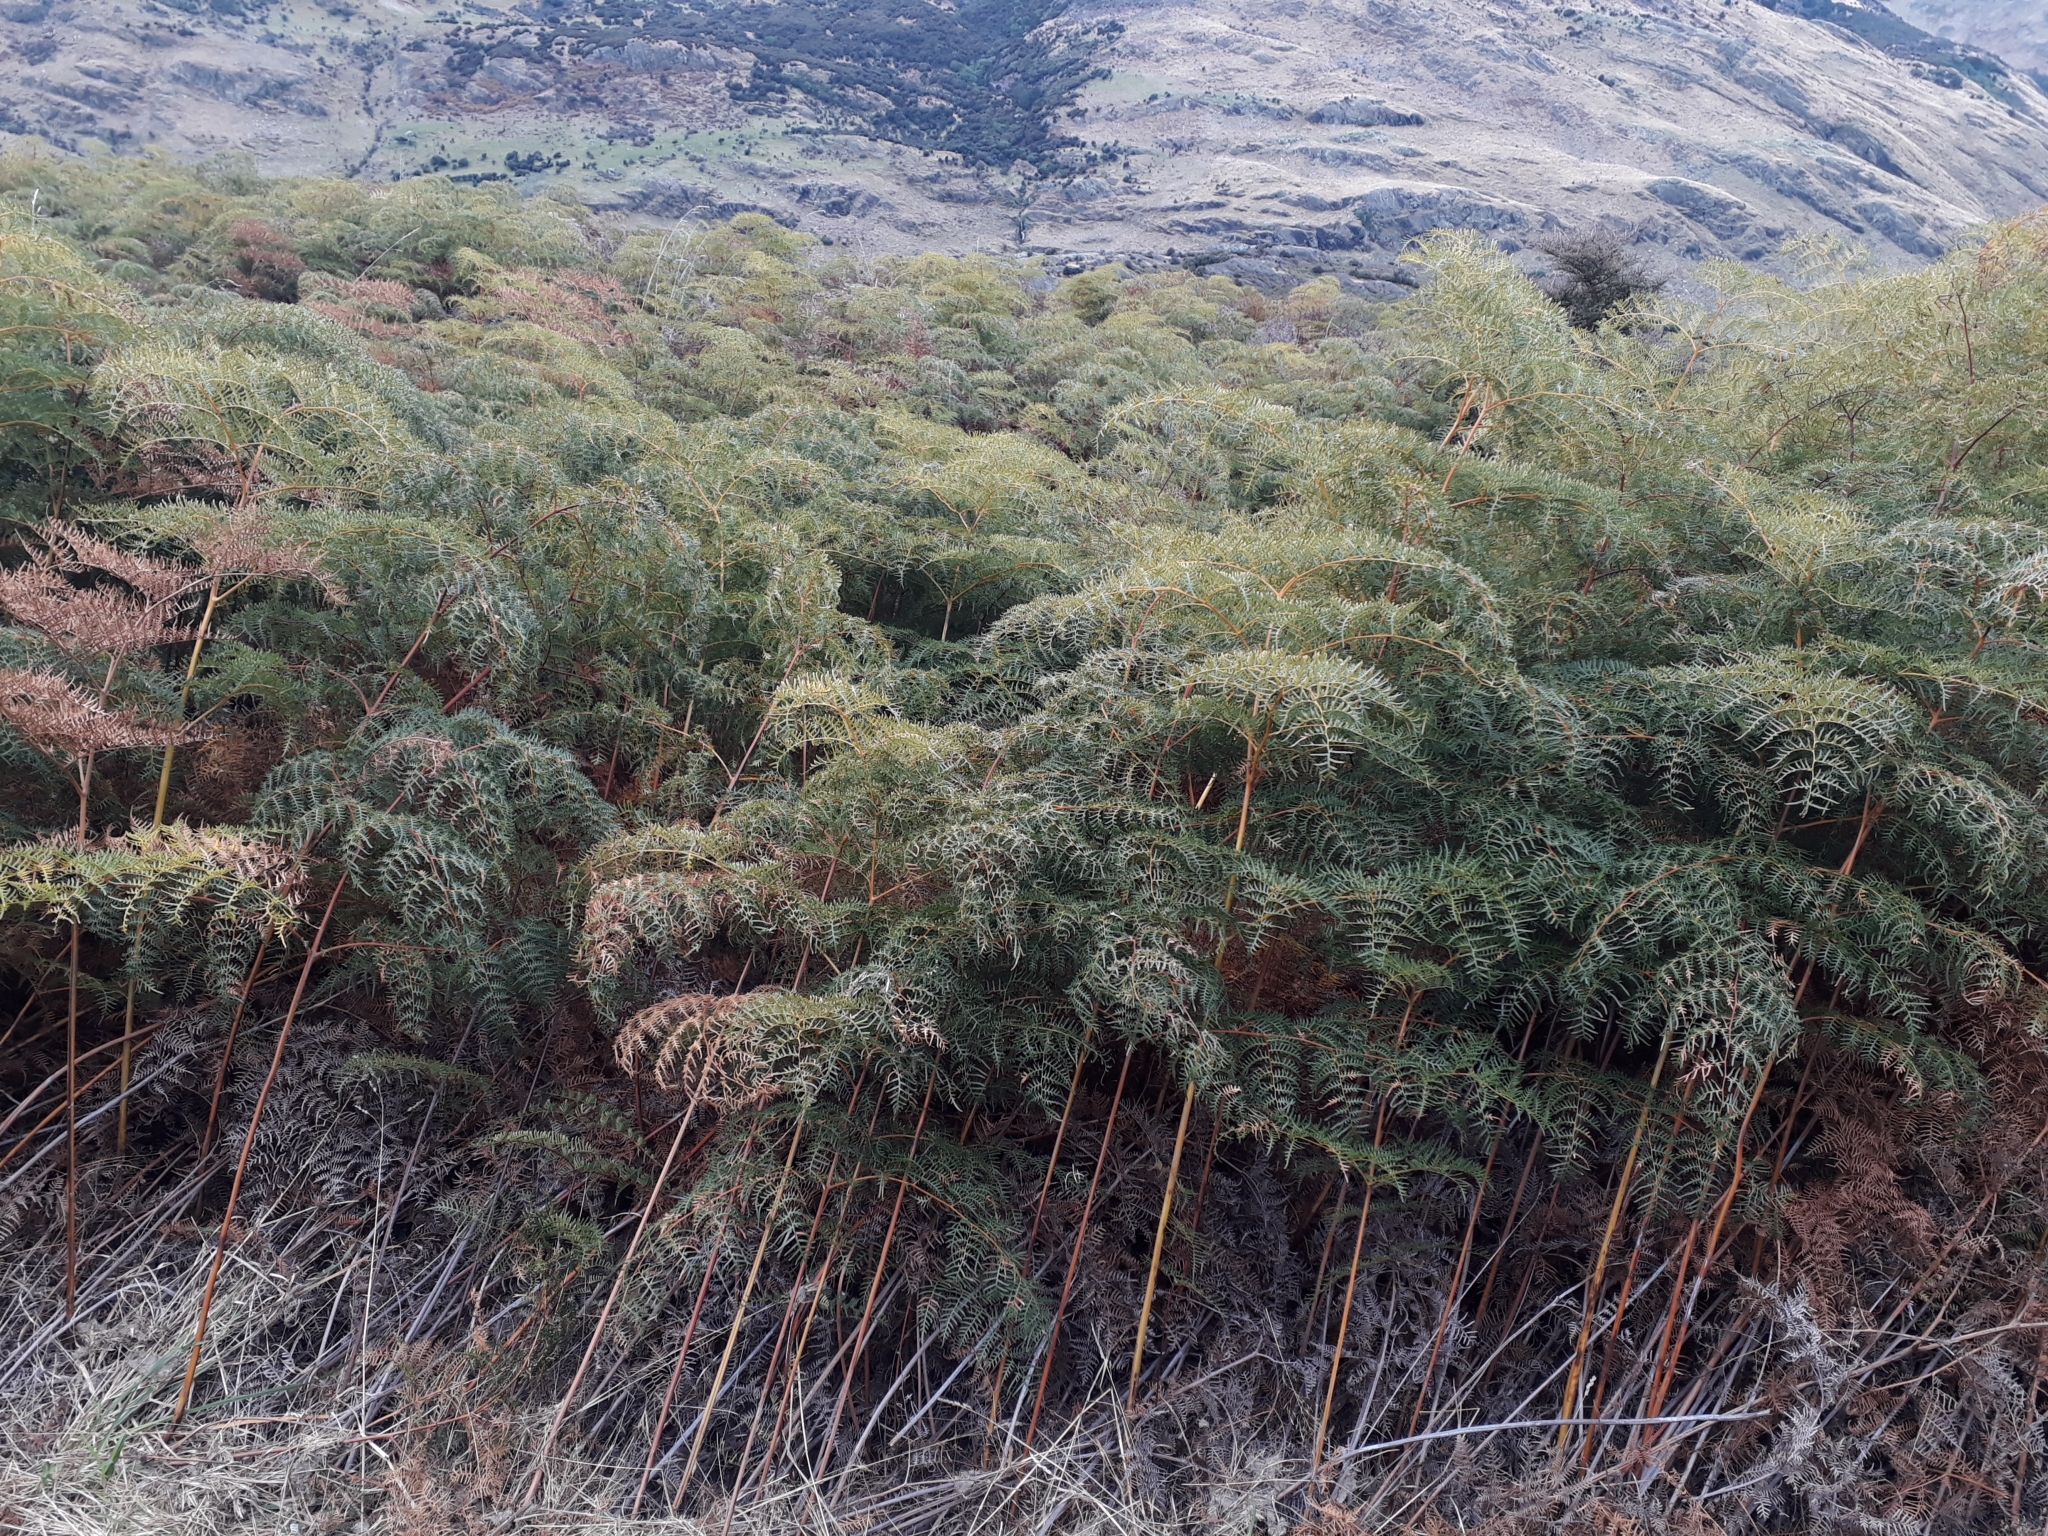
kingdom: Plantae
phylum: Tracheophyta
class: Polypodiopsida
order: Polypodiales
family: Dennstaedtiaceae
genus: Pteridium
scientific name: Pteridium esculentum
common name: Bracken fern
